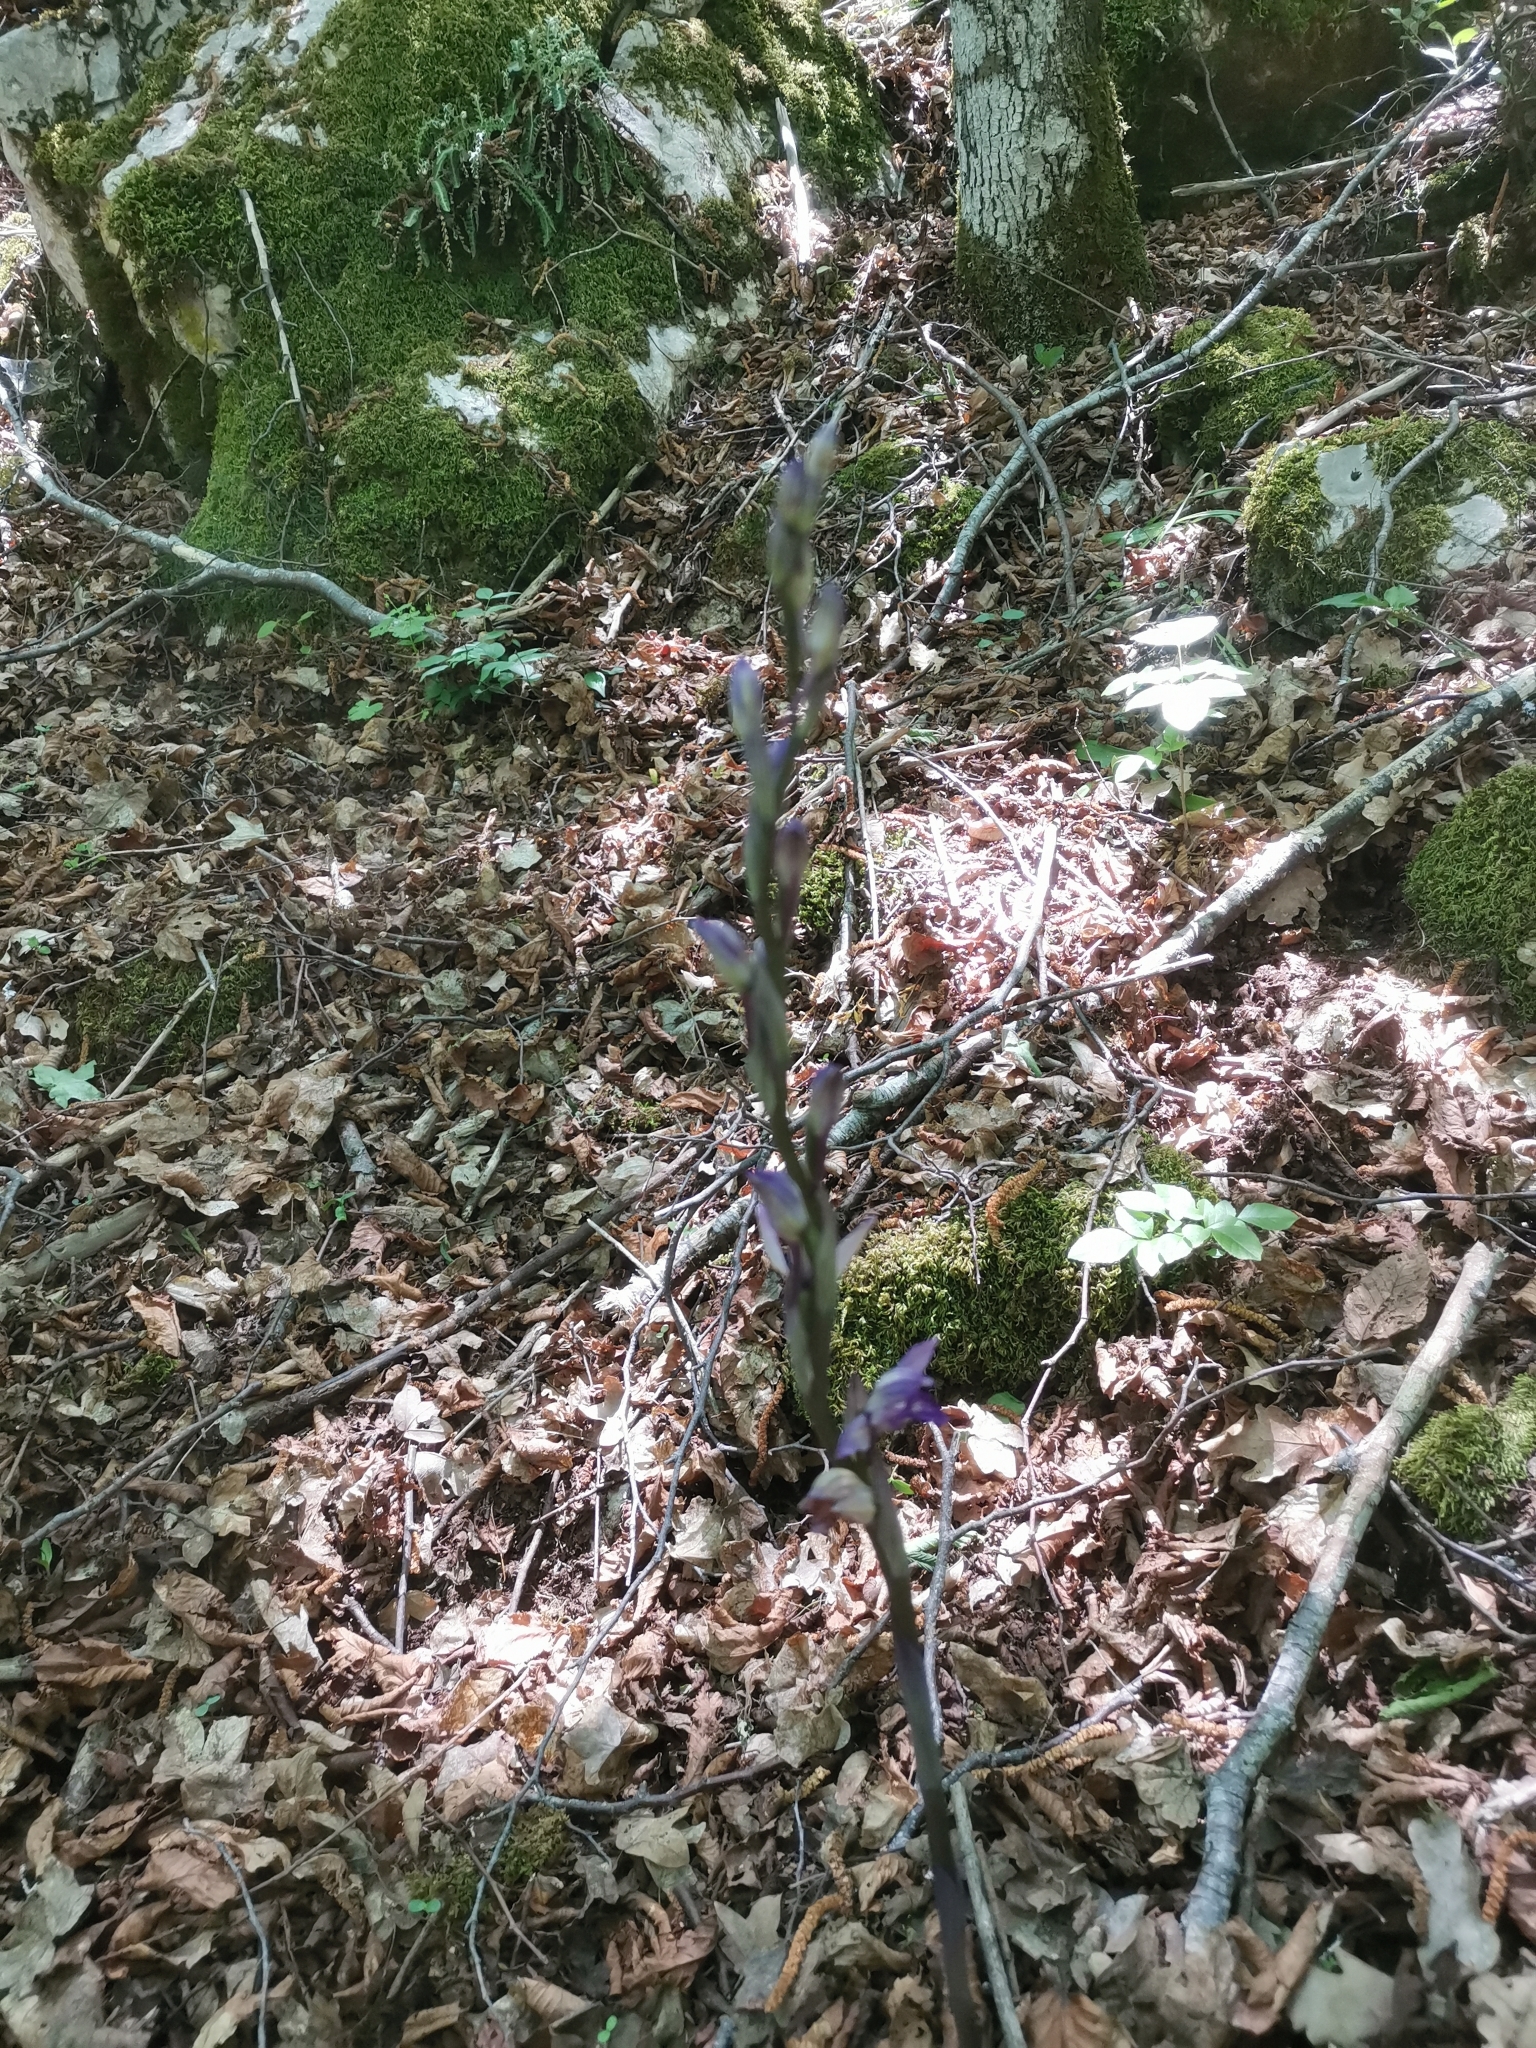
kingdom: Plantae
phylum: Tracheophyta
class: Liliopsida
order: Asparagales
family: Orchidaceae
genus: Limodorum
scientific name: Limodorum abortivum
